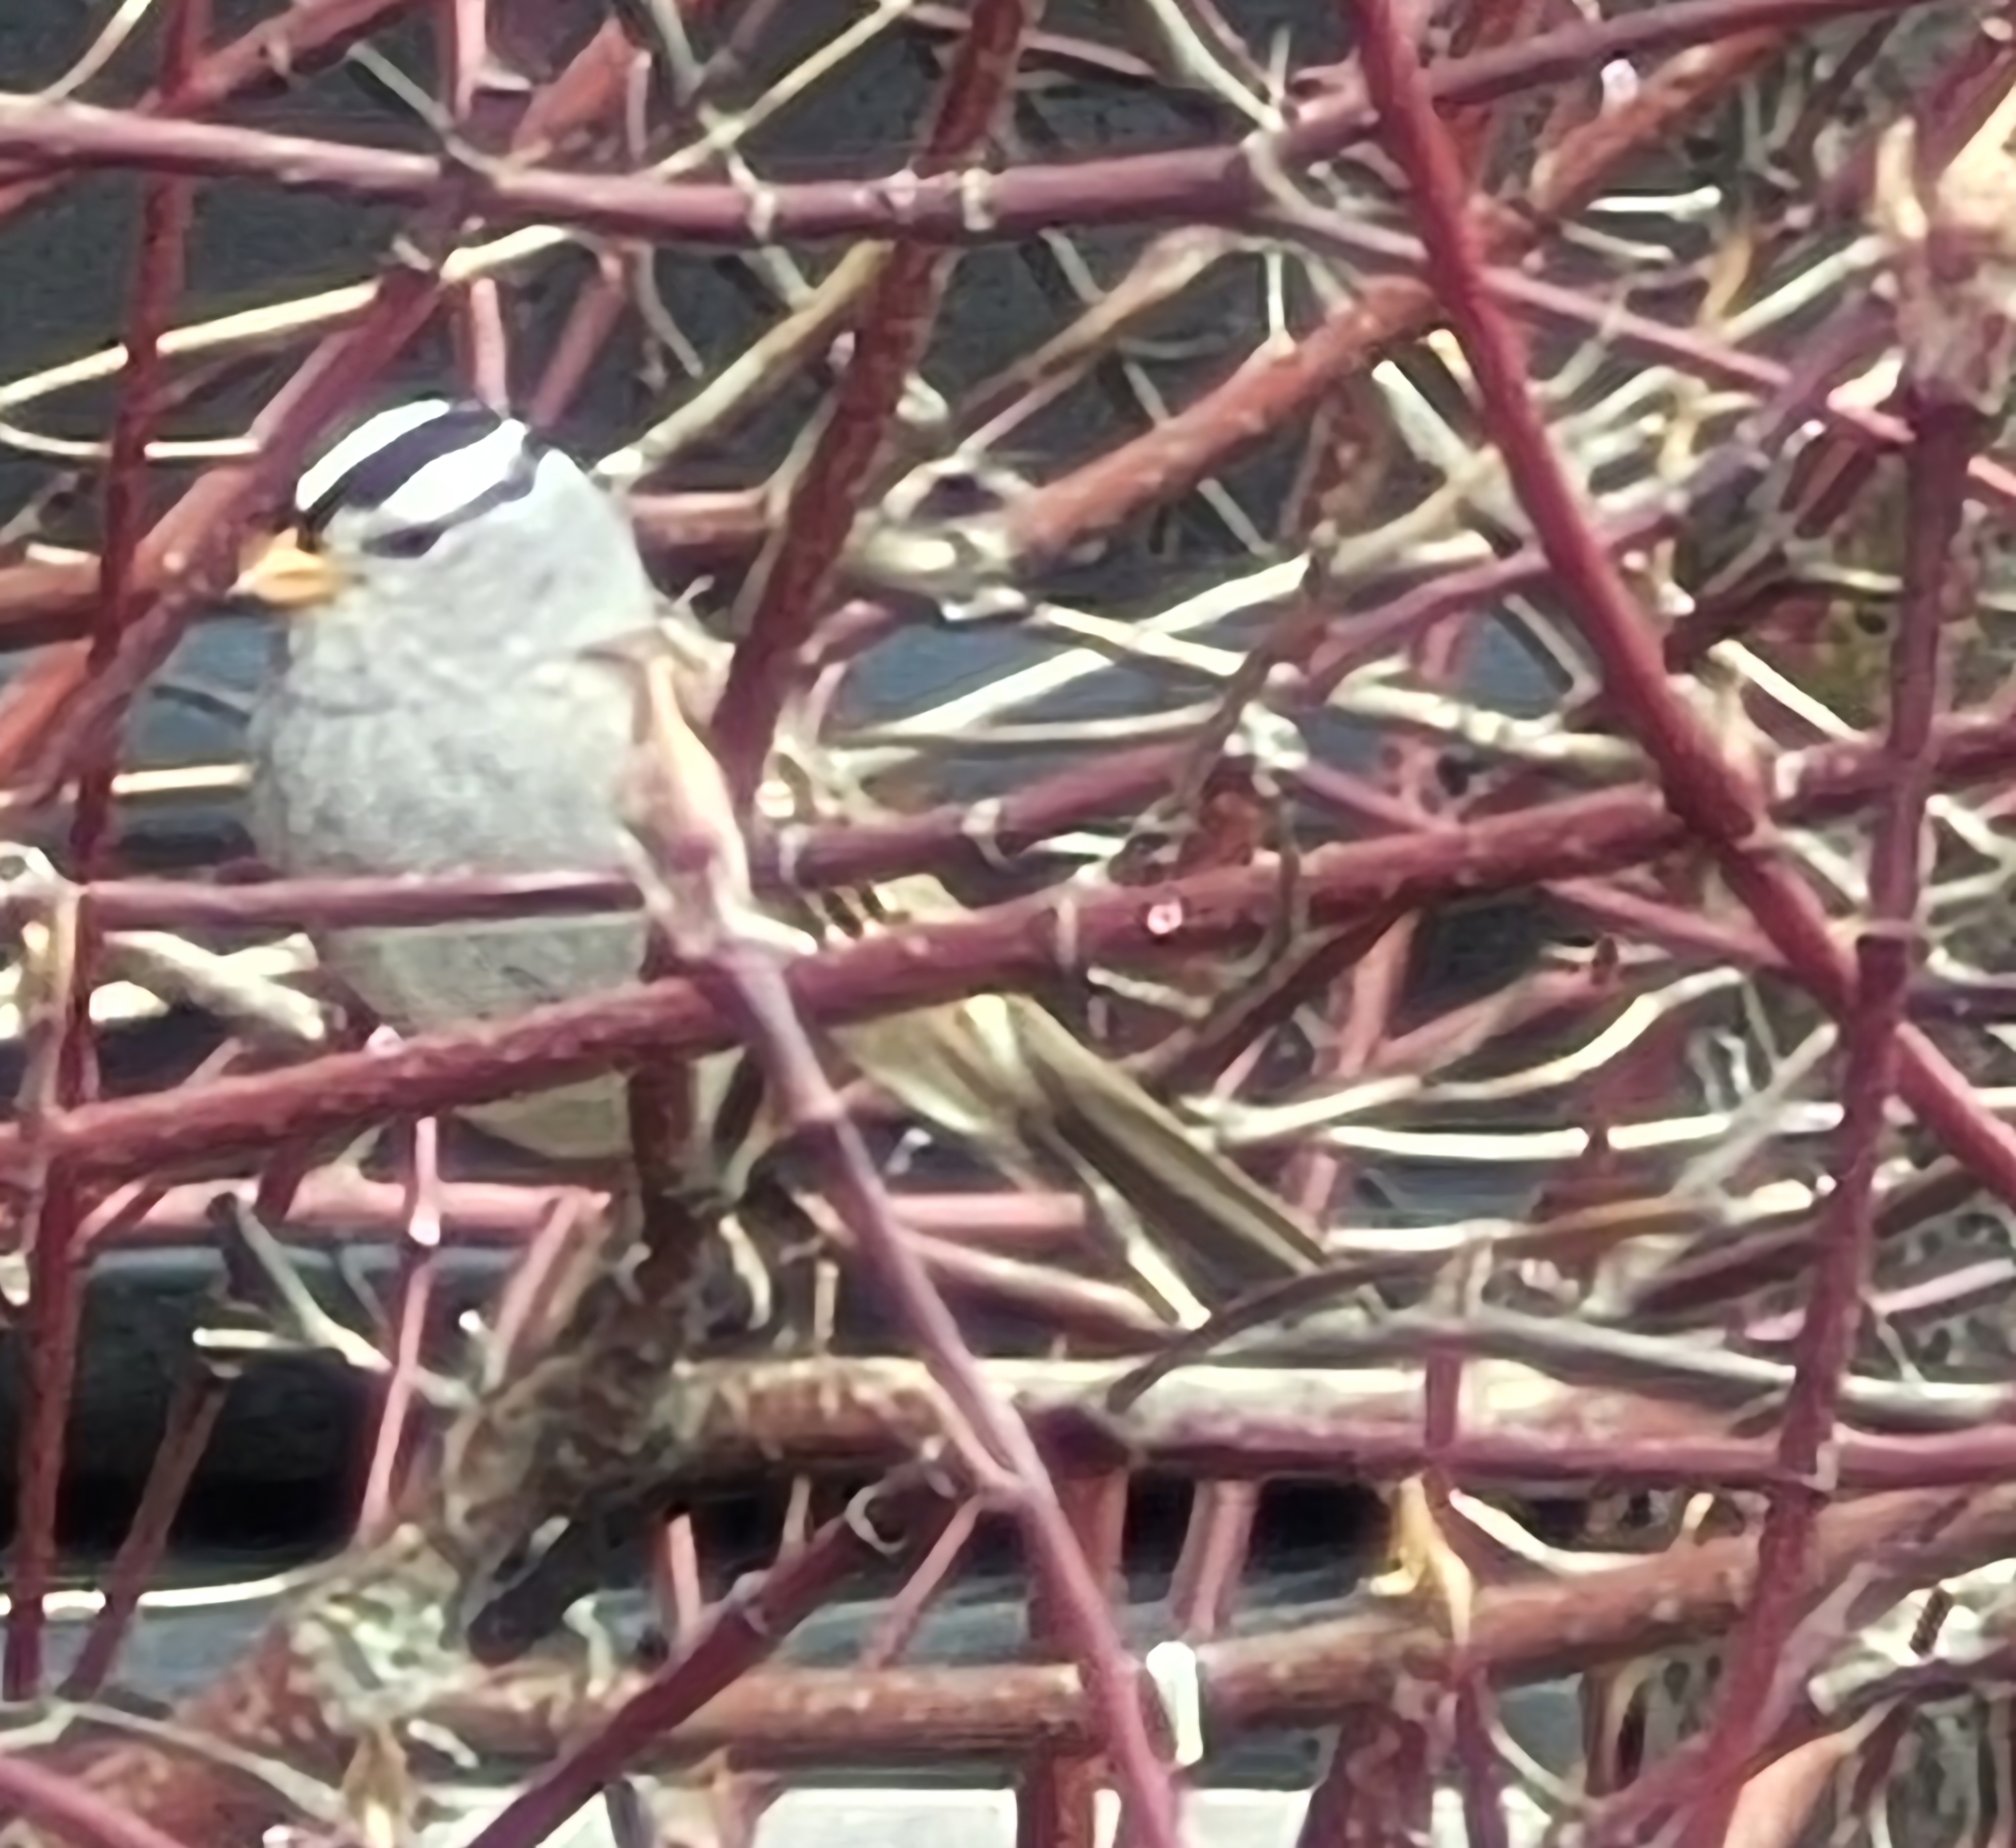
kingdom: Animalia
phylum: Chordata
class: Aves
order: Passeriformes
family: Passerellidae
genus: Zonotrichia
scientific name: Zonotrichia leucophrys
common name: White-crowned sparrow
